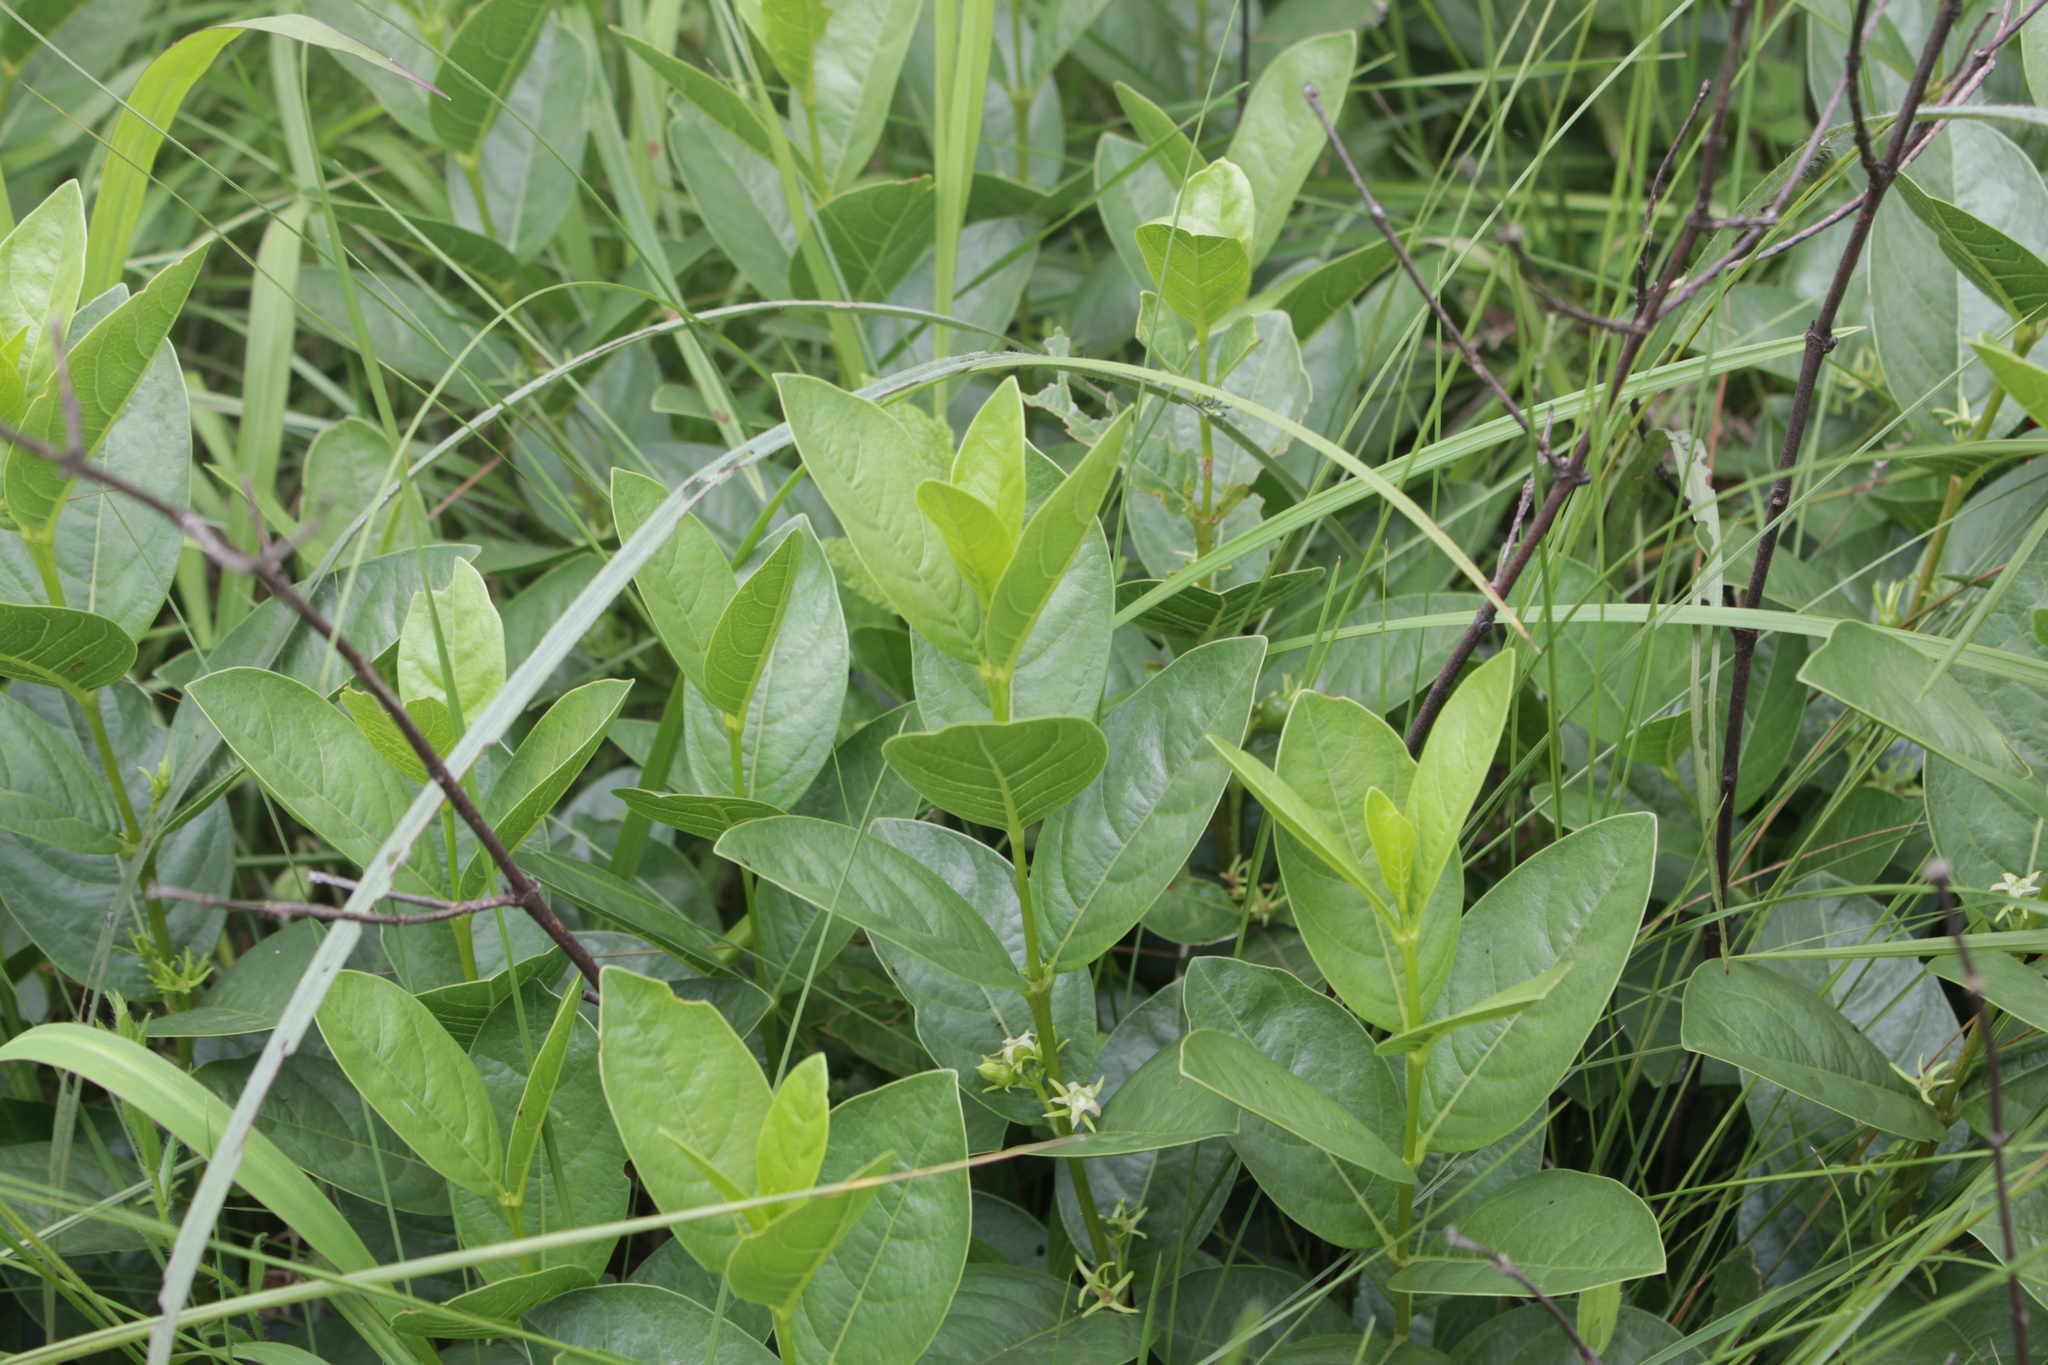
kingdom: Plantae
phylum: Tracheophyta
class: Magnoliopsida
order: Gentianales
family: Rubiaceae
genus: Vangueria
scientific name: Vangueria venosa
